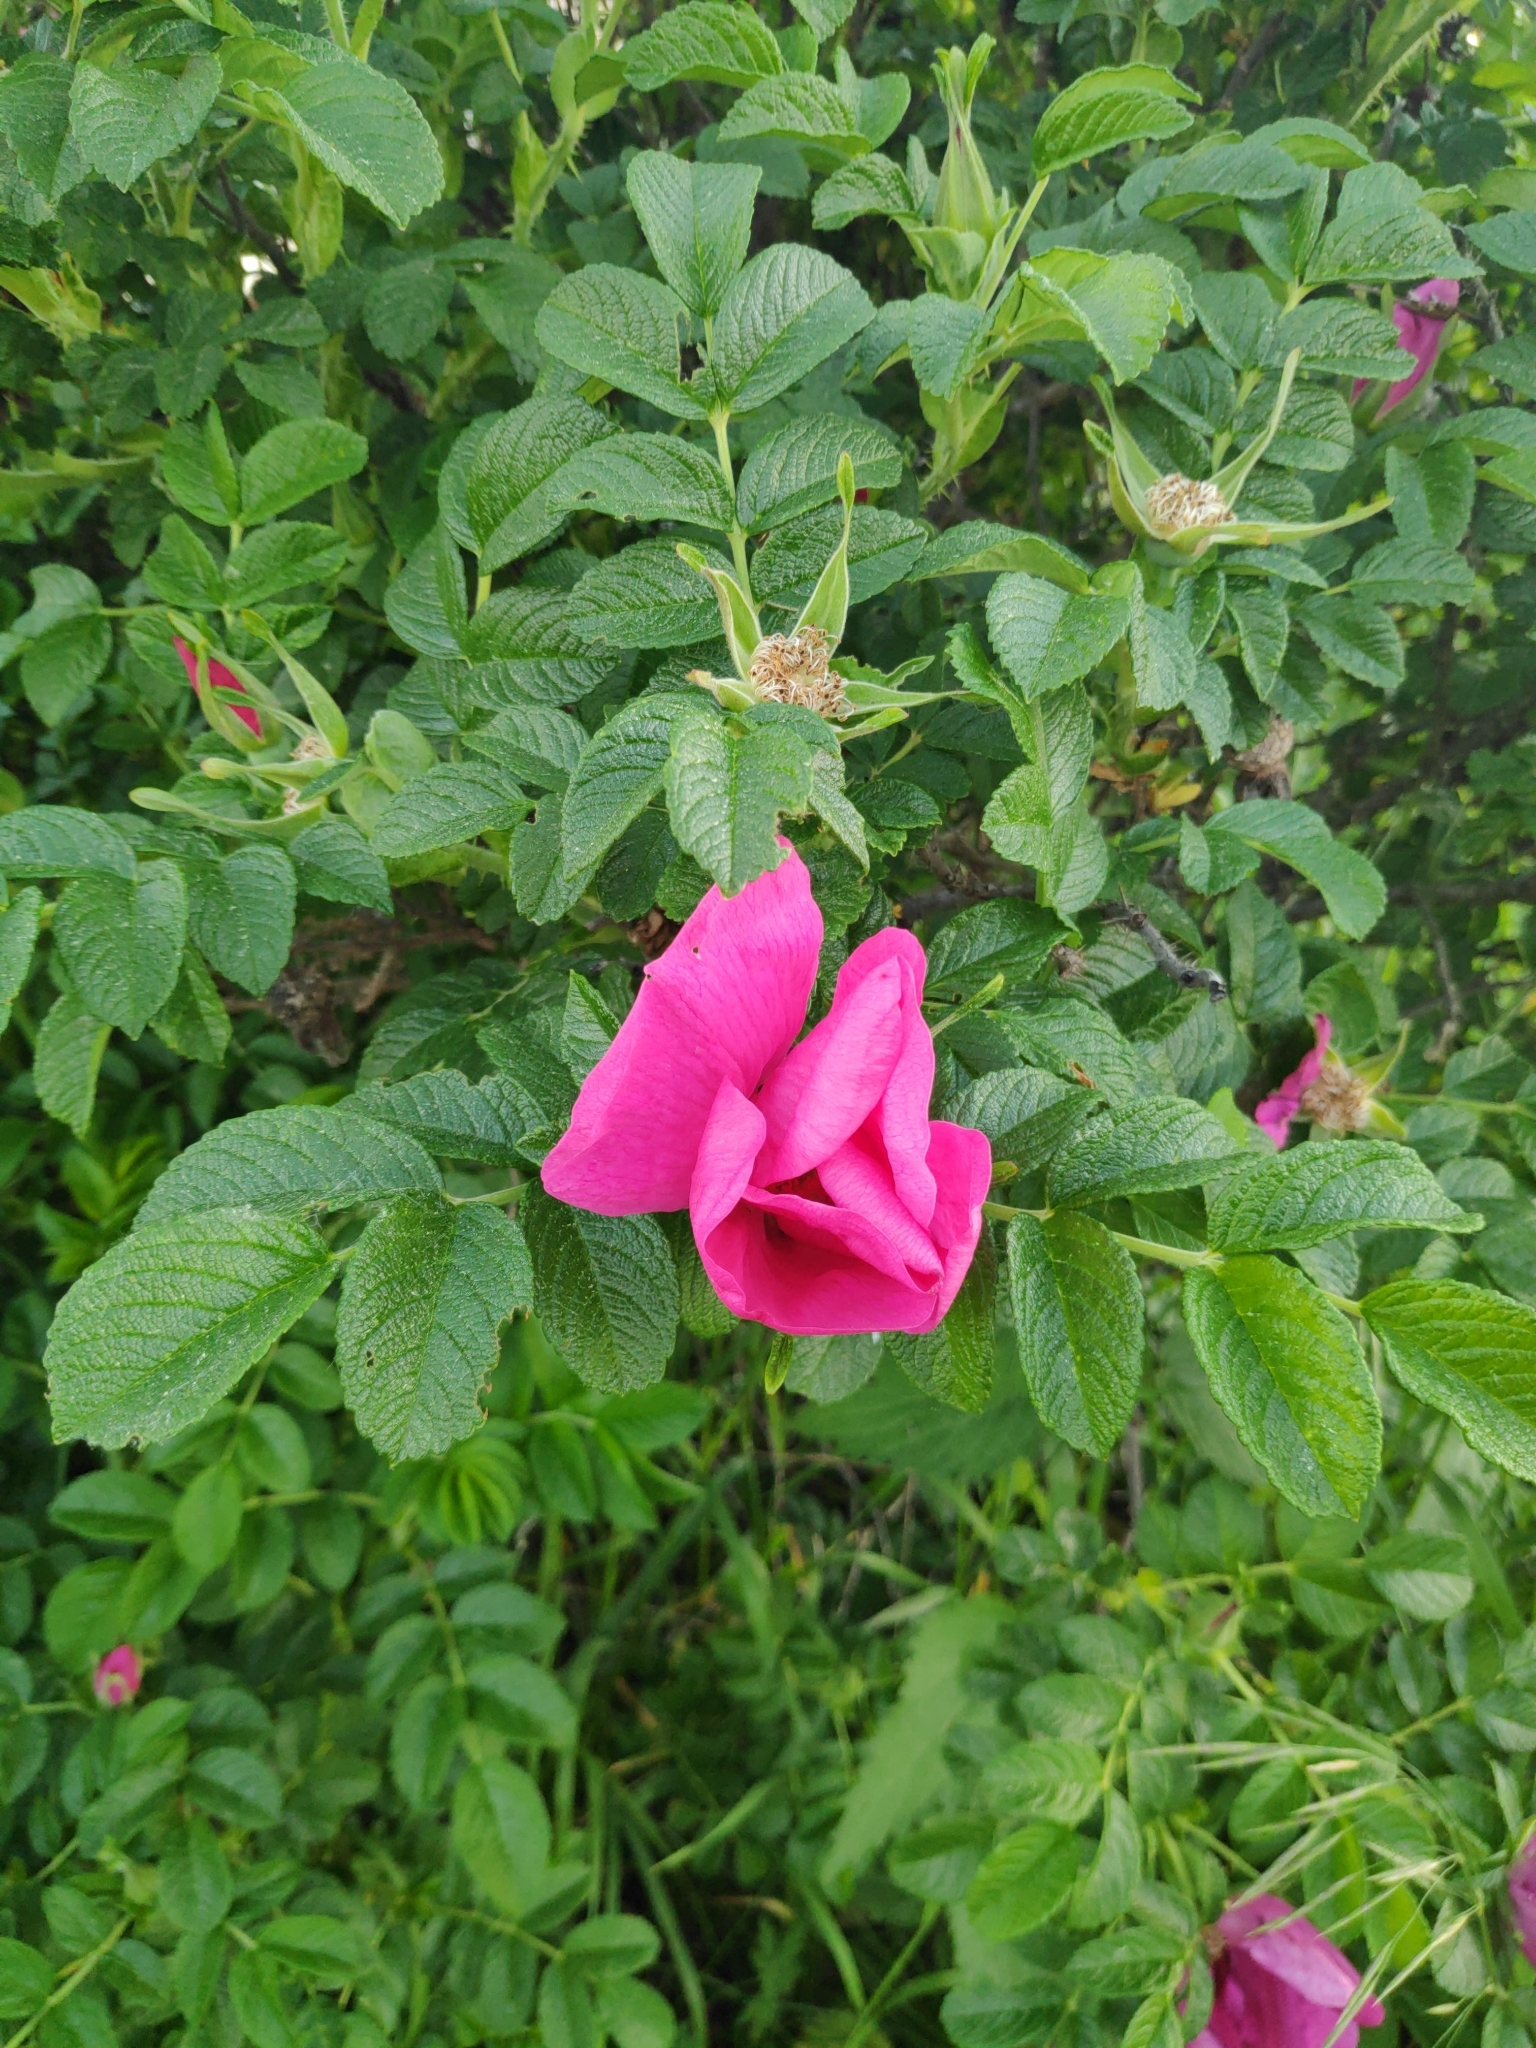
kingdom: Plantae
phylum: Tracheophyta
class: Magnoliopsida
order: Rosales
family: Rosaceae
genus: Rosa
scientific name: Rosa rugosa
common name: Japanese rose
